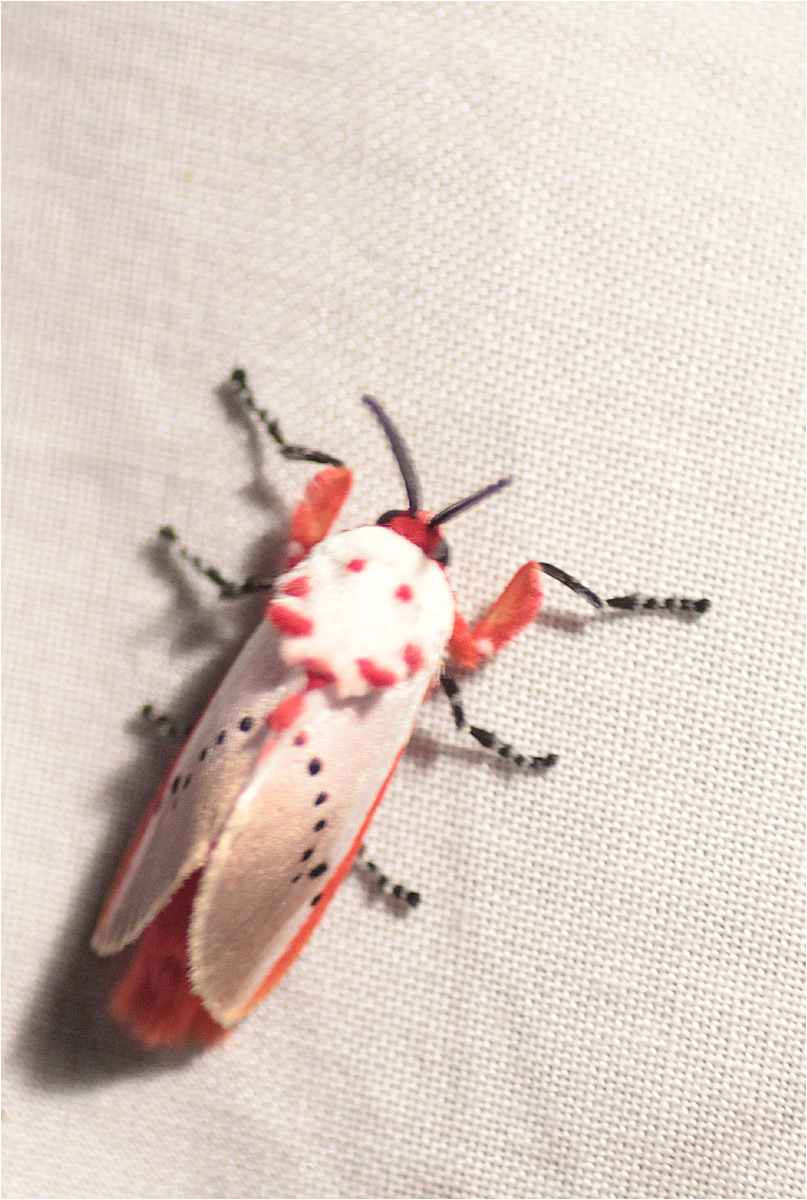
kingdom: Animalia
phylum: Arthropoda
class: Insecta
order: Lepidoptera
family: Megalopygidae
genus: Trosia
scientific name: Trosia semirufa
